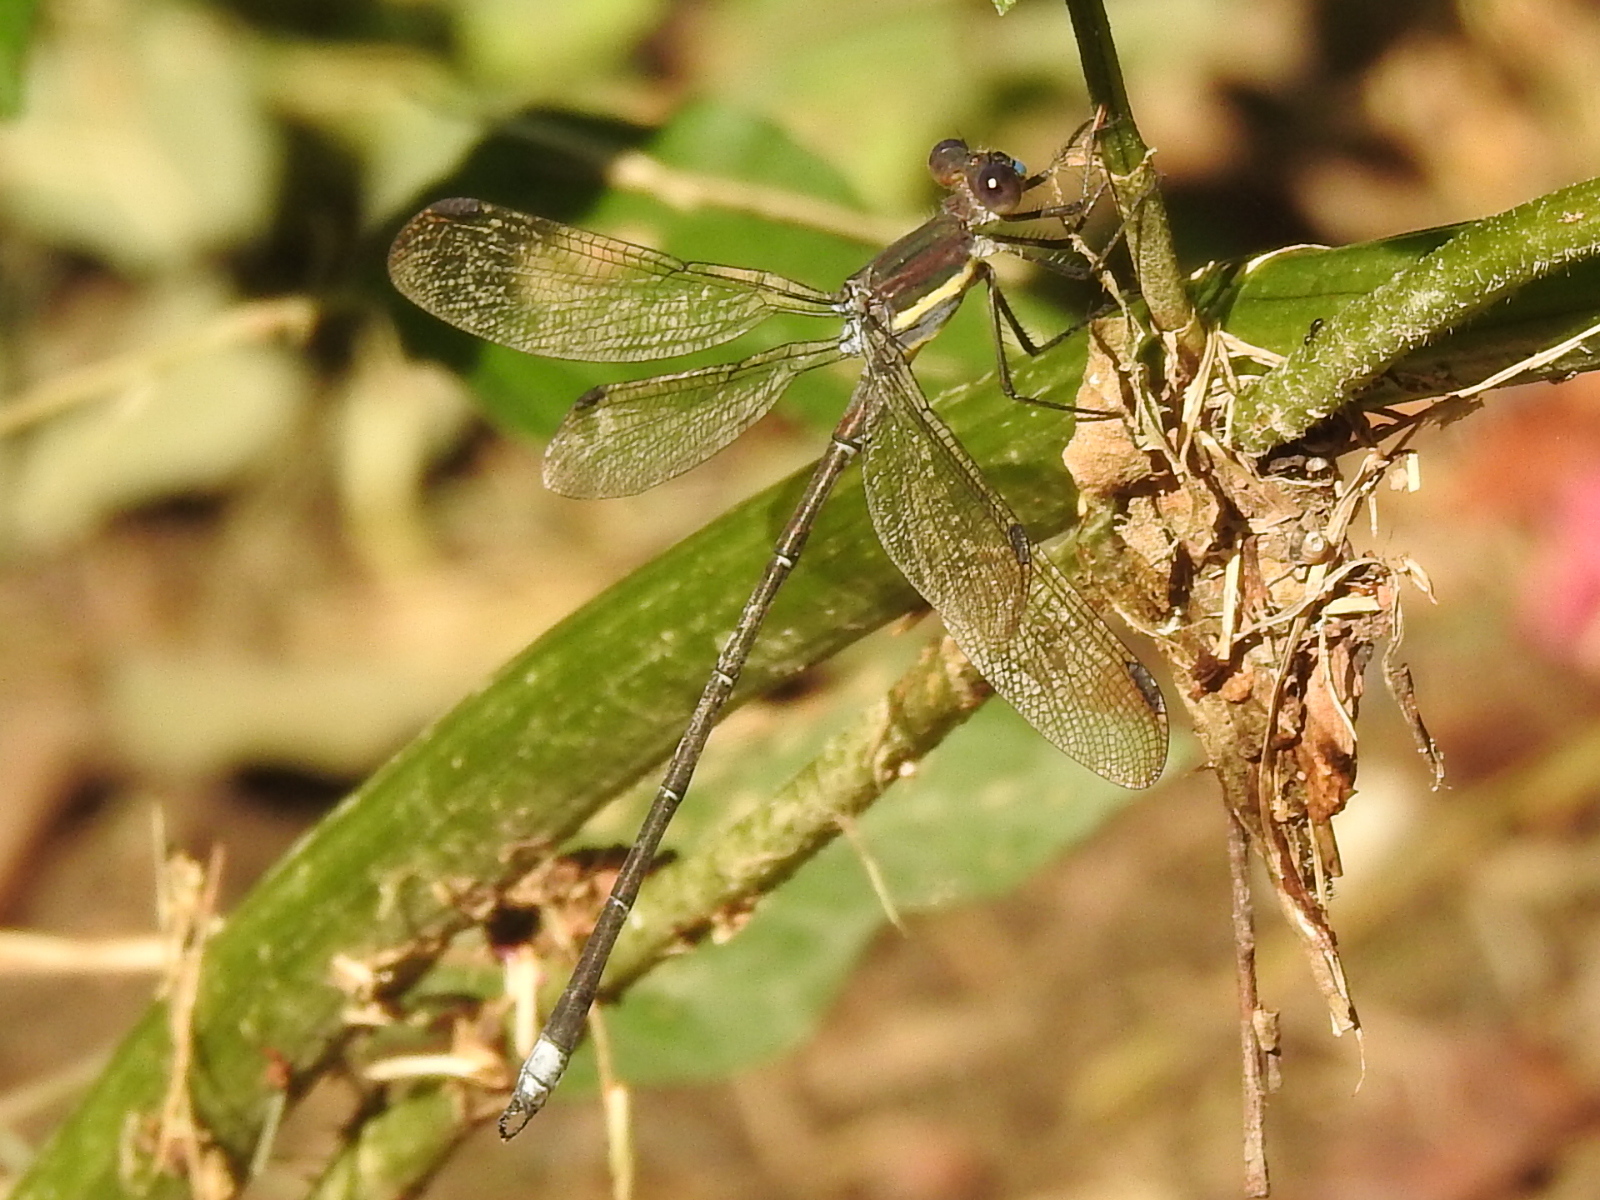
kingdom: Animalia
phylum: Arthropoda
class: Insecta
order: Odonata
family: Lestidae
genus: Archilestes
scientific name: Archilestes grandis
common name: Great spreadwing
